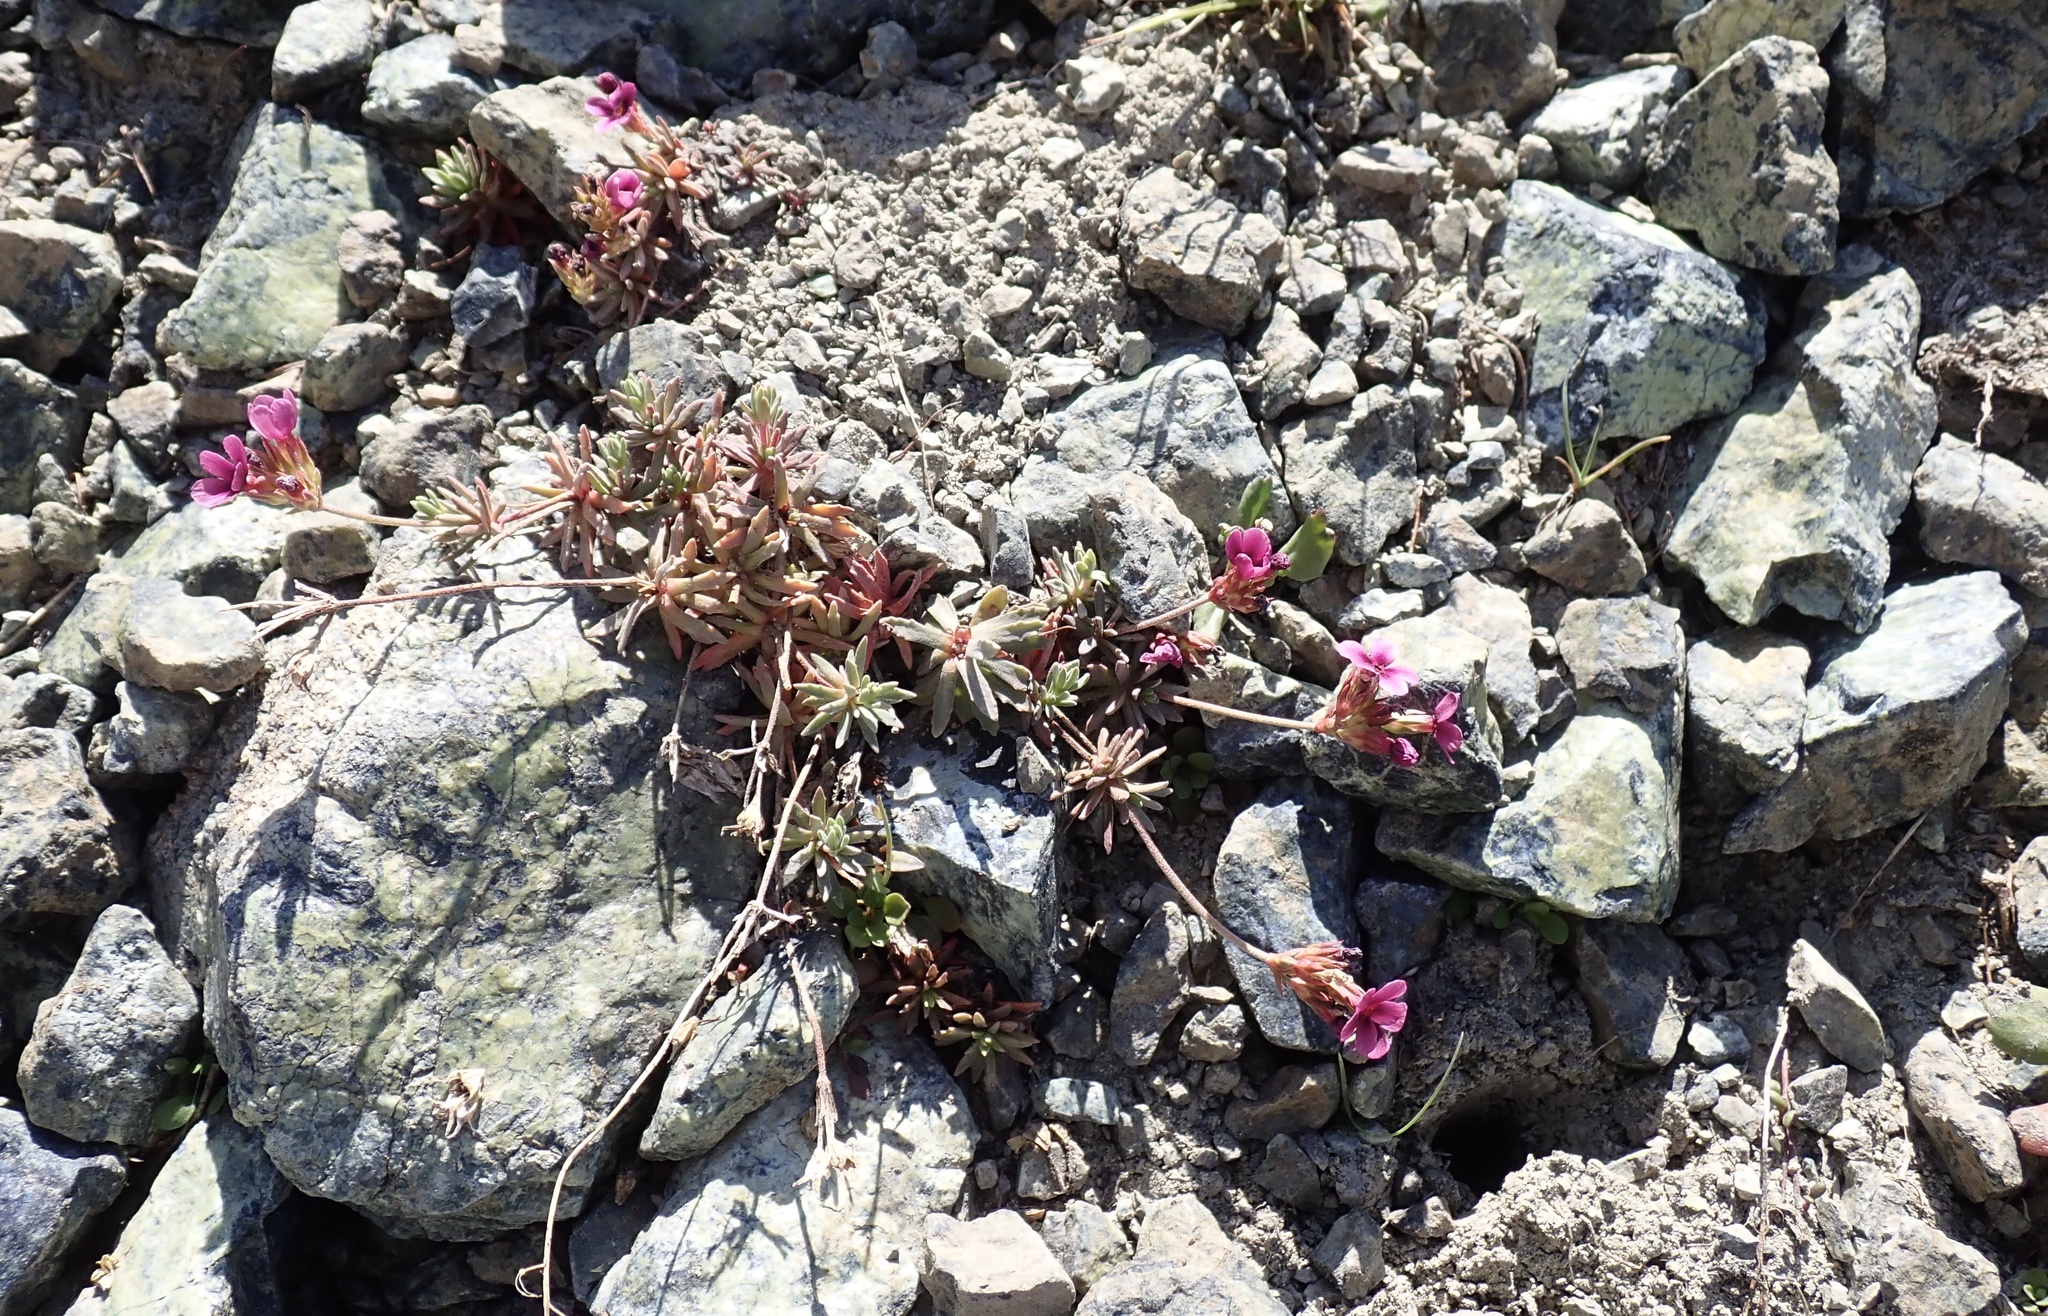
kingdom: Plantae
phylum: Tracheophyta
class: Magnoliopsida
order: Ericales
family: Primulaceae
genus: Androsace
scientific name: Androsace nivalis
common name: Snow dwarf-primrose
